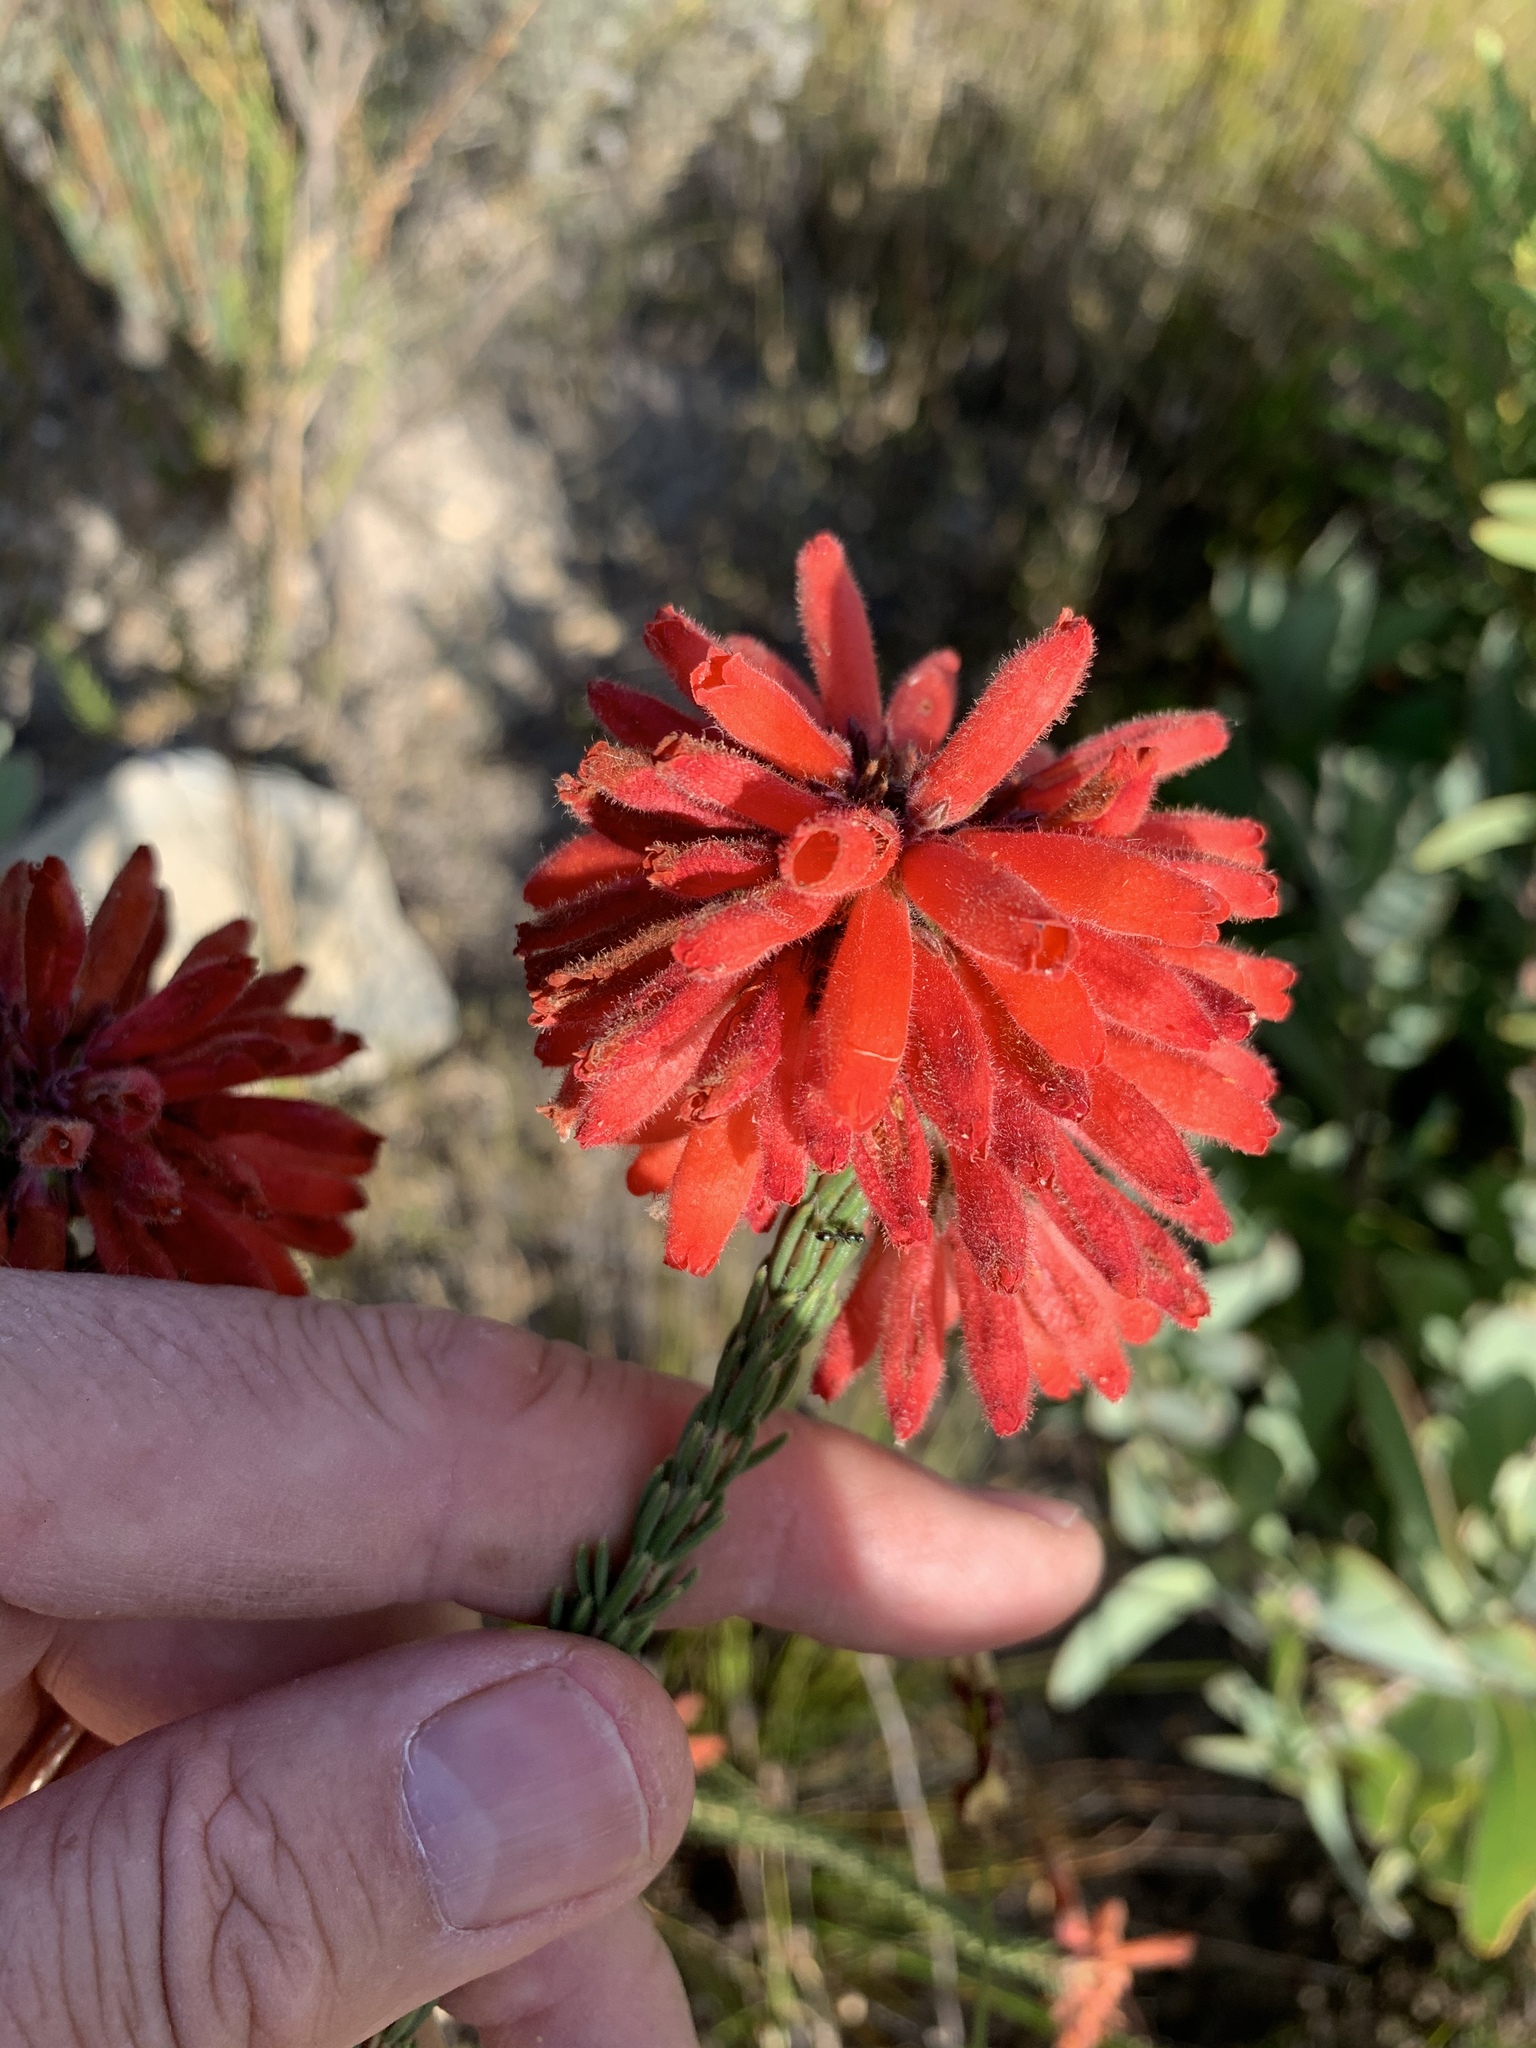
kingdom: Plantae
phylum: Tracheophyta
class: Magnoliopsida
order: Ericales
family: Ericaceae
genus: Erica
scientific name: Erica cerinthoides
